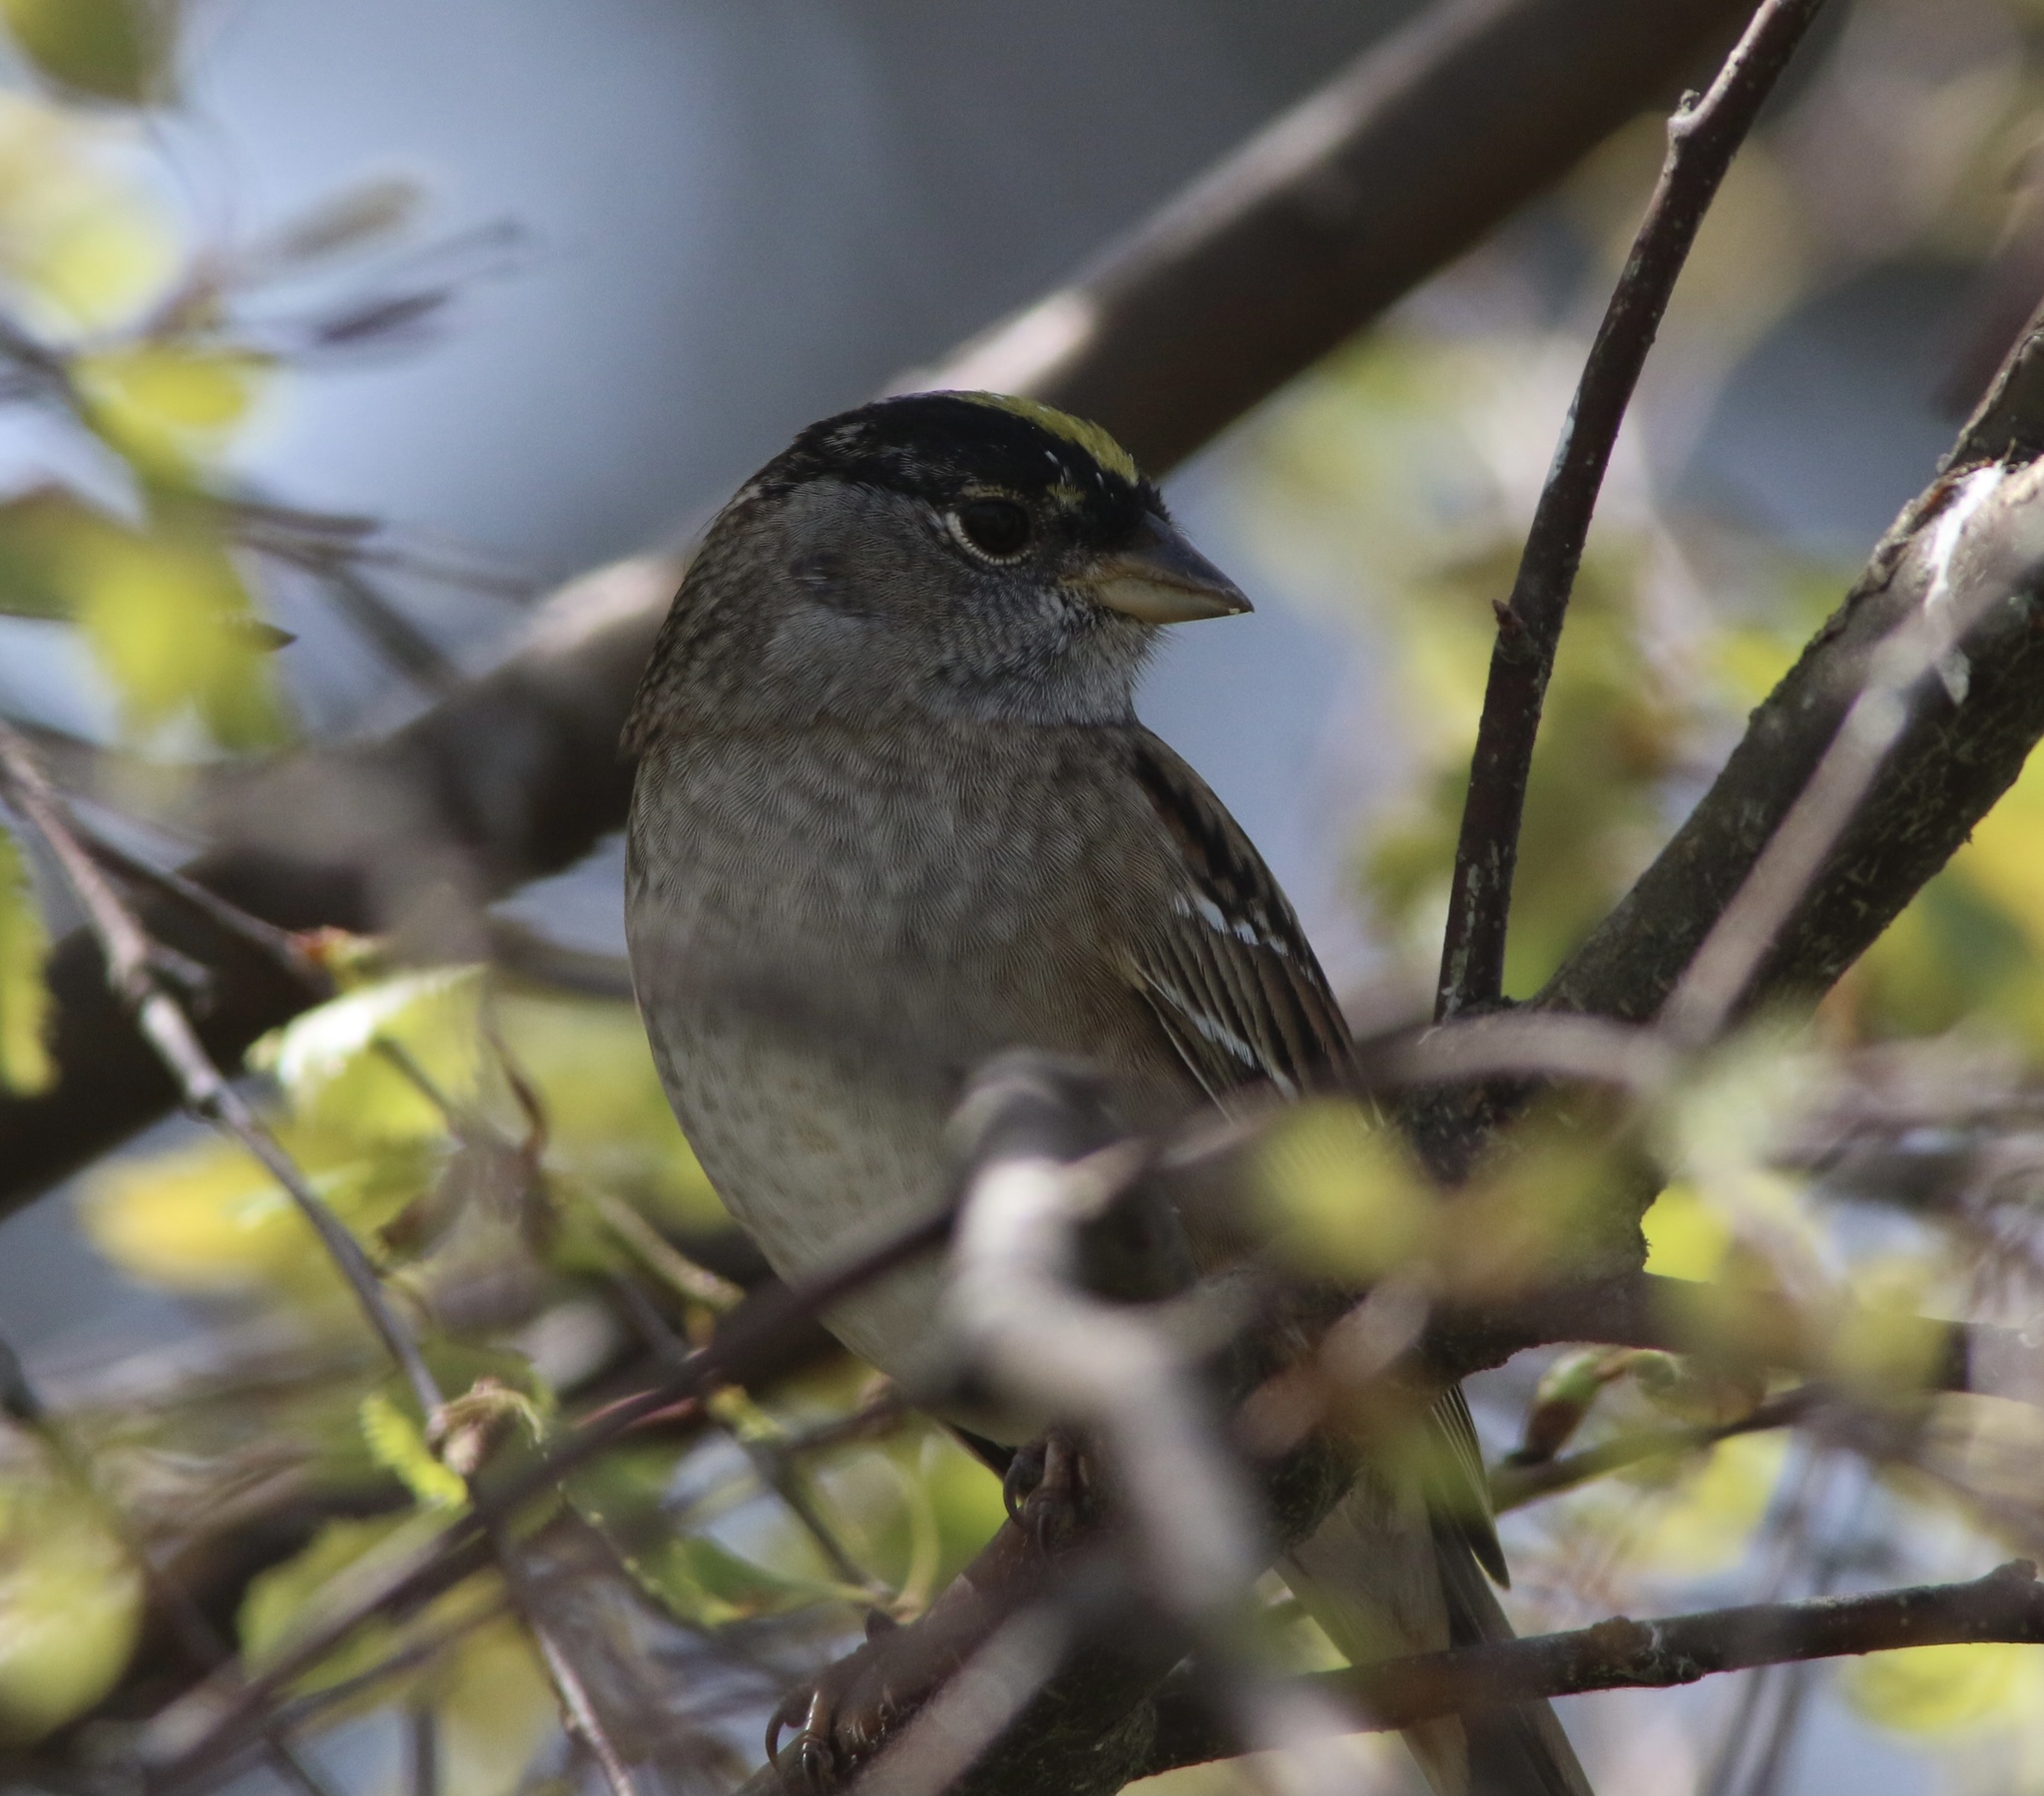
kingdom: Animalia
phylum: Chordata
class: Aves
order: Passeriformes
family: Passerellidae
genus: Zonotrichia
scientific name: Zonotrichia atricapilla
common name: Golden-crowned sparrow
